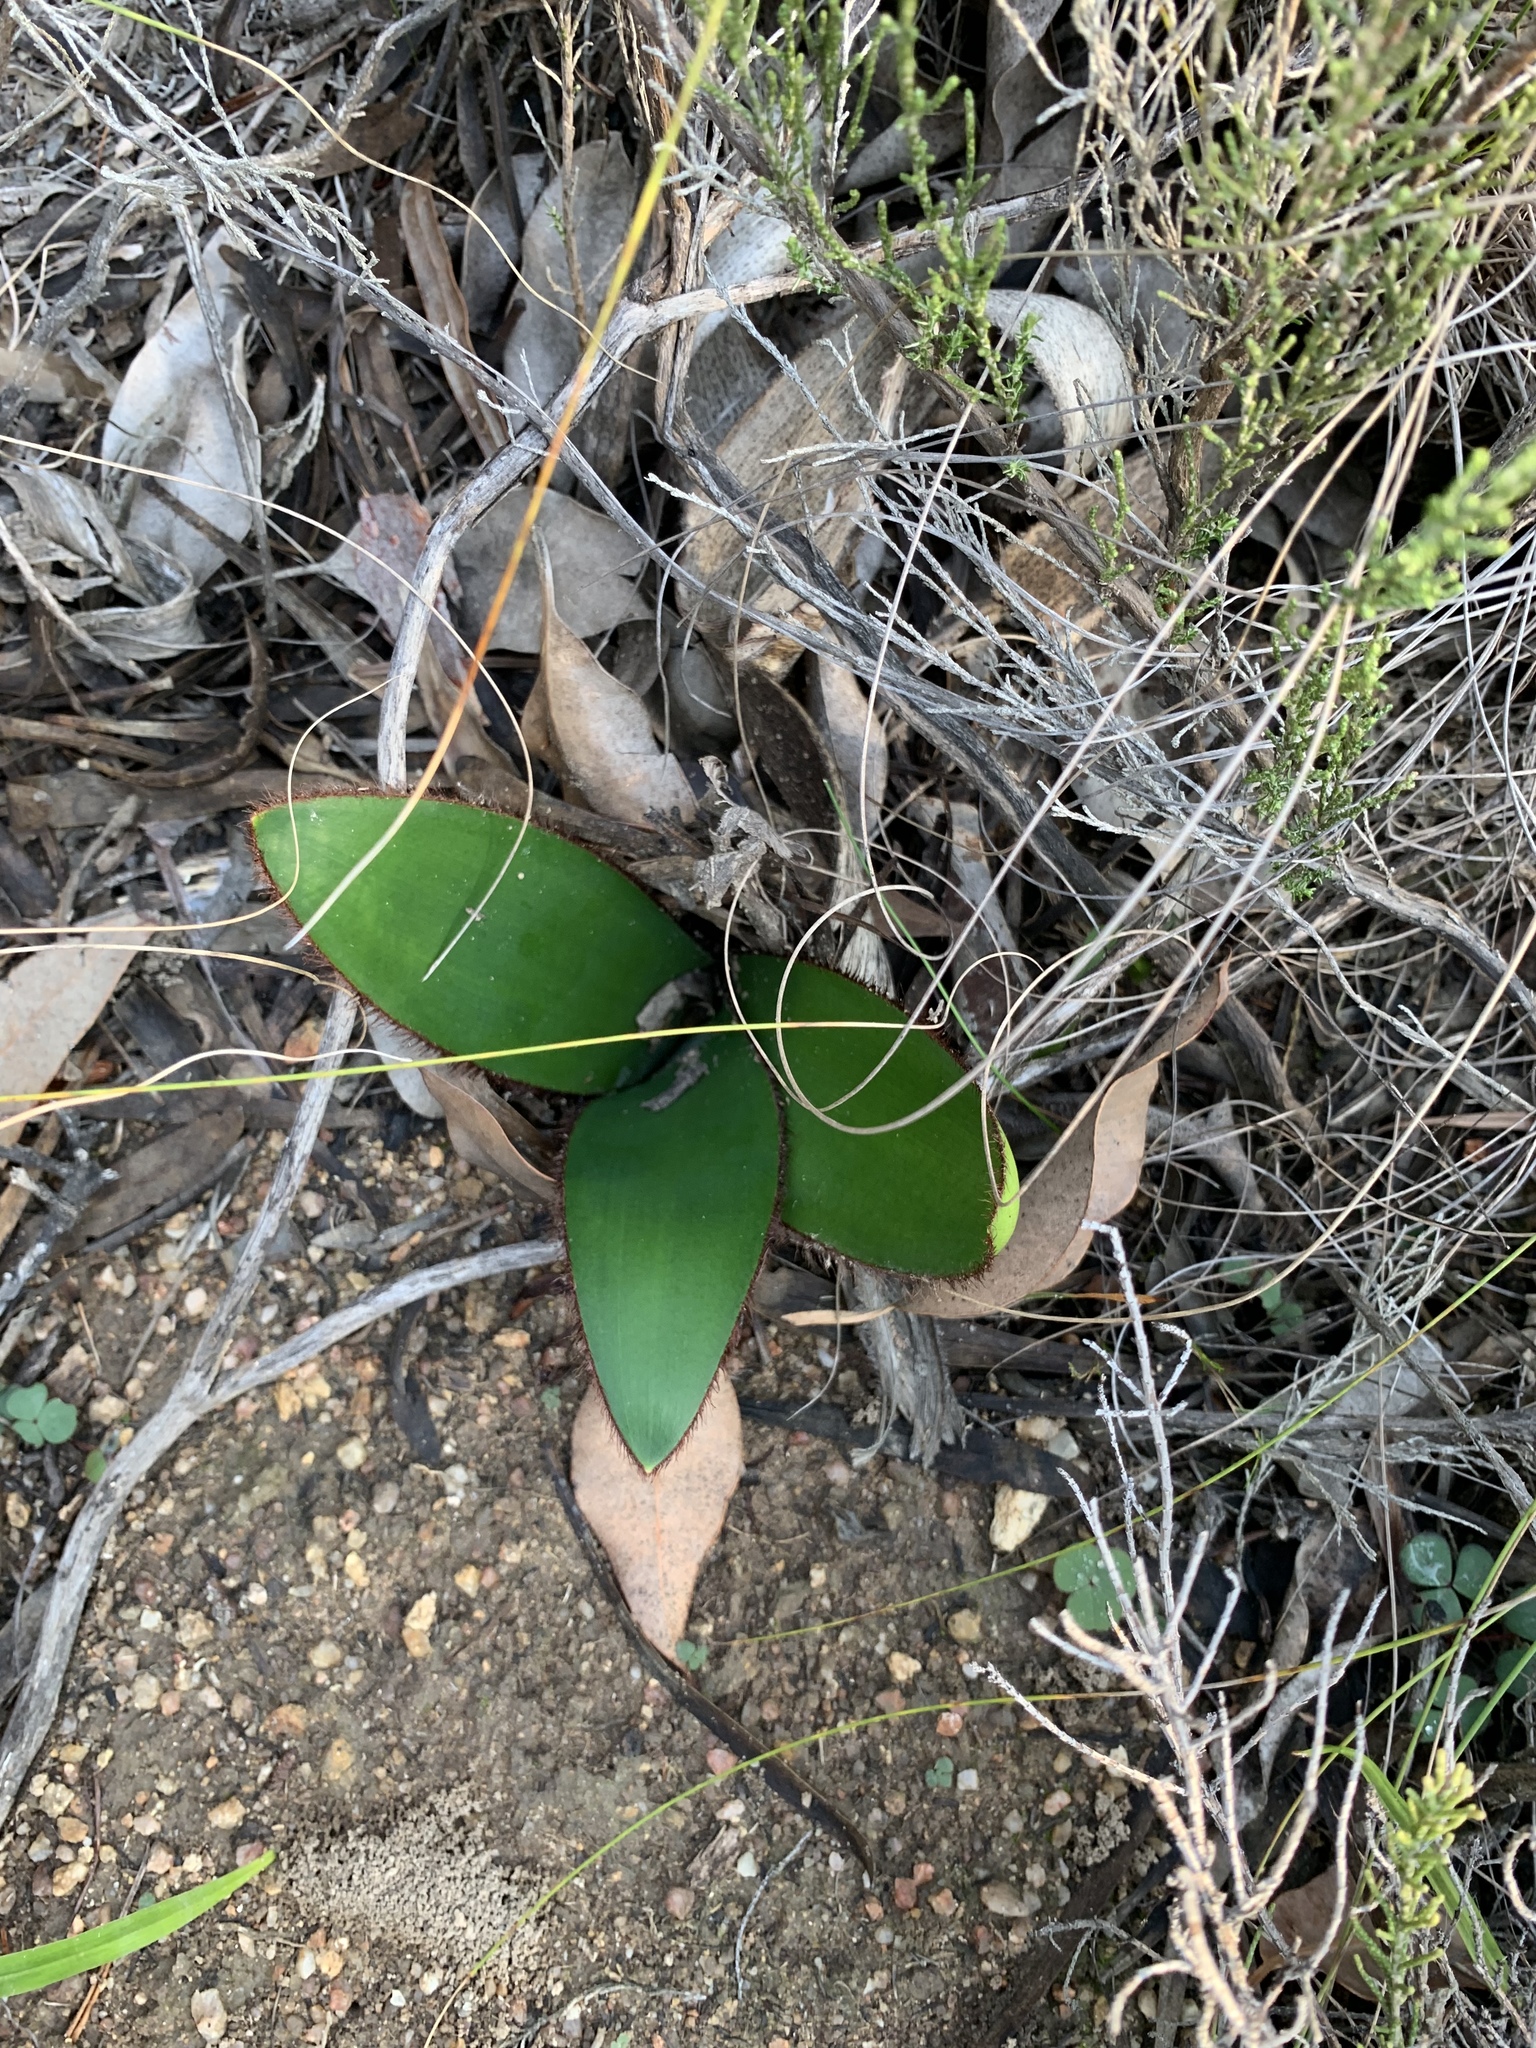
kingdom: Plantae
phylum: Tracheophyta
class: Liliopsida
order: Asparagales
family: Amaryllidaceae
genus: Crossyne
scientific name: Crossyne guttata
